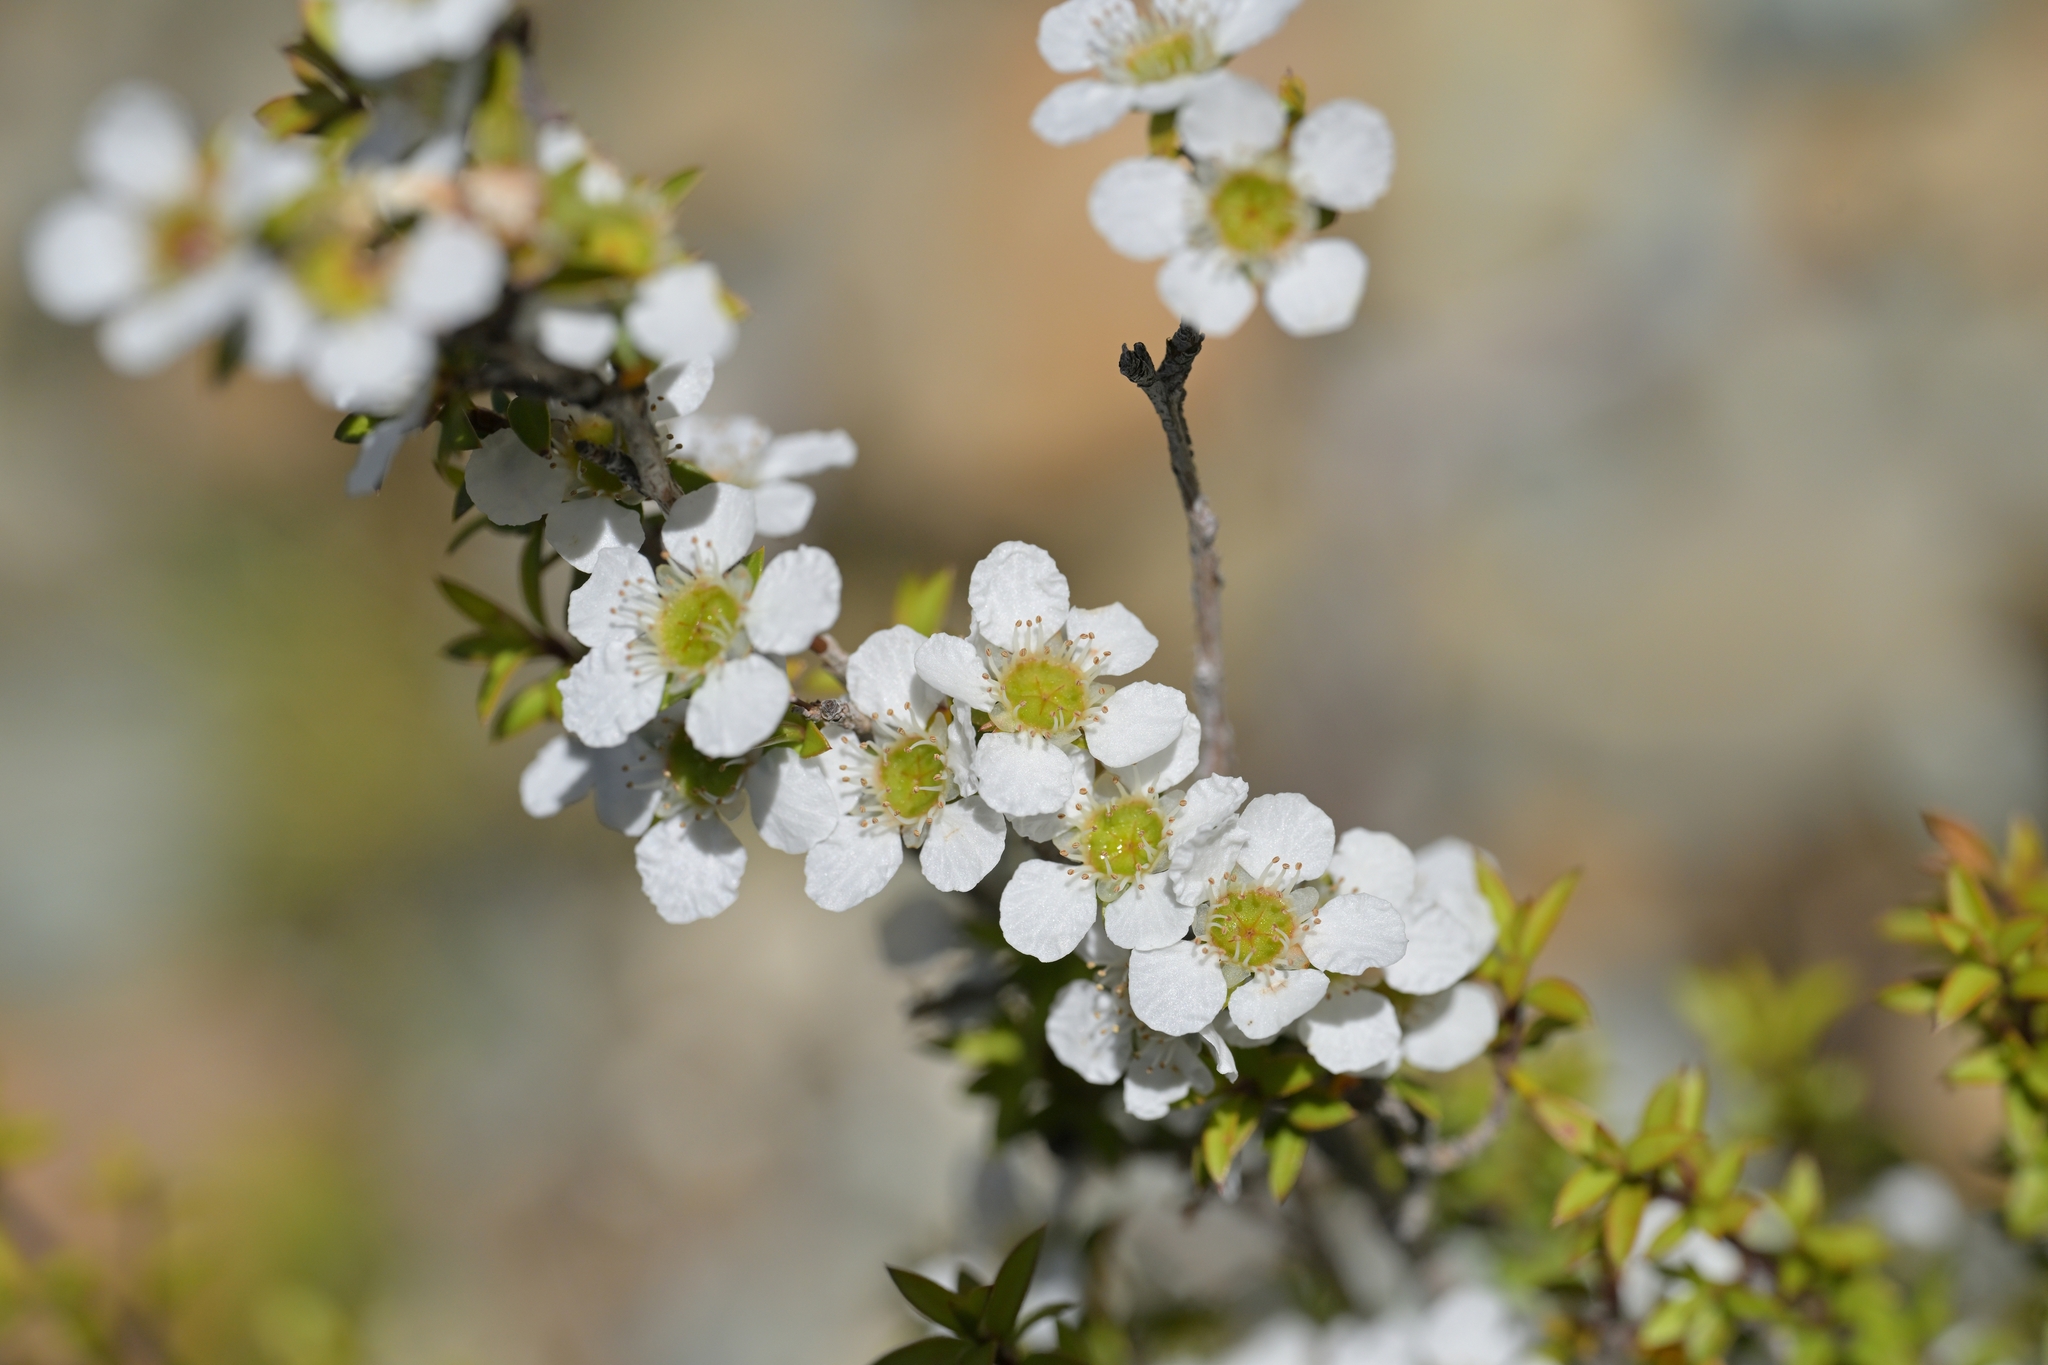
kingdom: Plantae
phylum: Tracheophyta
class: Magnoliopsida
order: Myrtales
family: Myrtaceae
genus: Leptospermum
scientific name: Leptospermum scoparium
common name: Broom tea-tree
